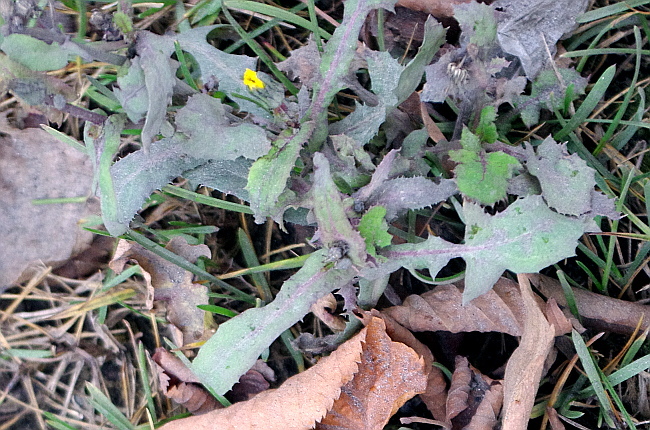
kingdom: Plantae
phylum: Tracheophyta
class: Magnoliopsida
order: Asterales
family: Asteraceae
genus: Sonchus
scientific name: Sonchus oleraceus
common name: Common sowthistle
